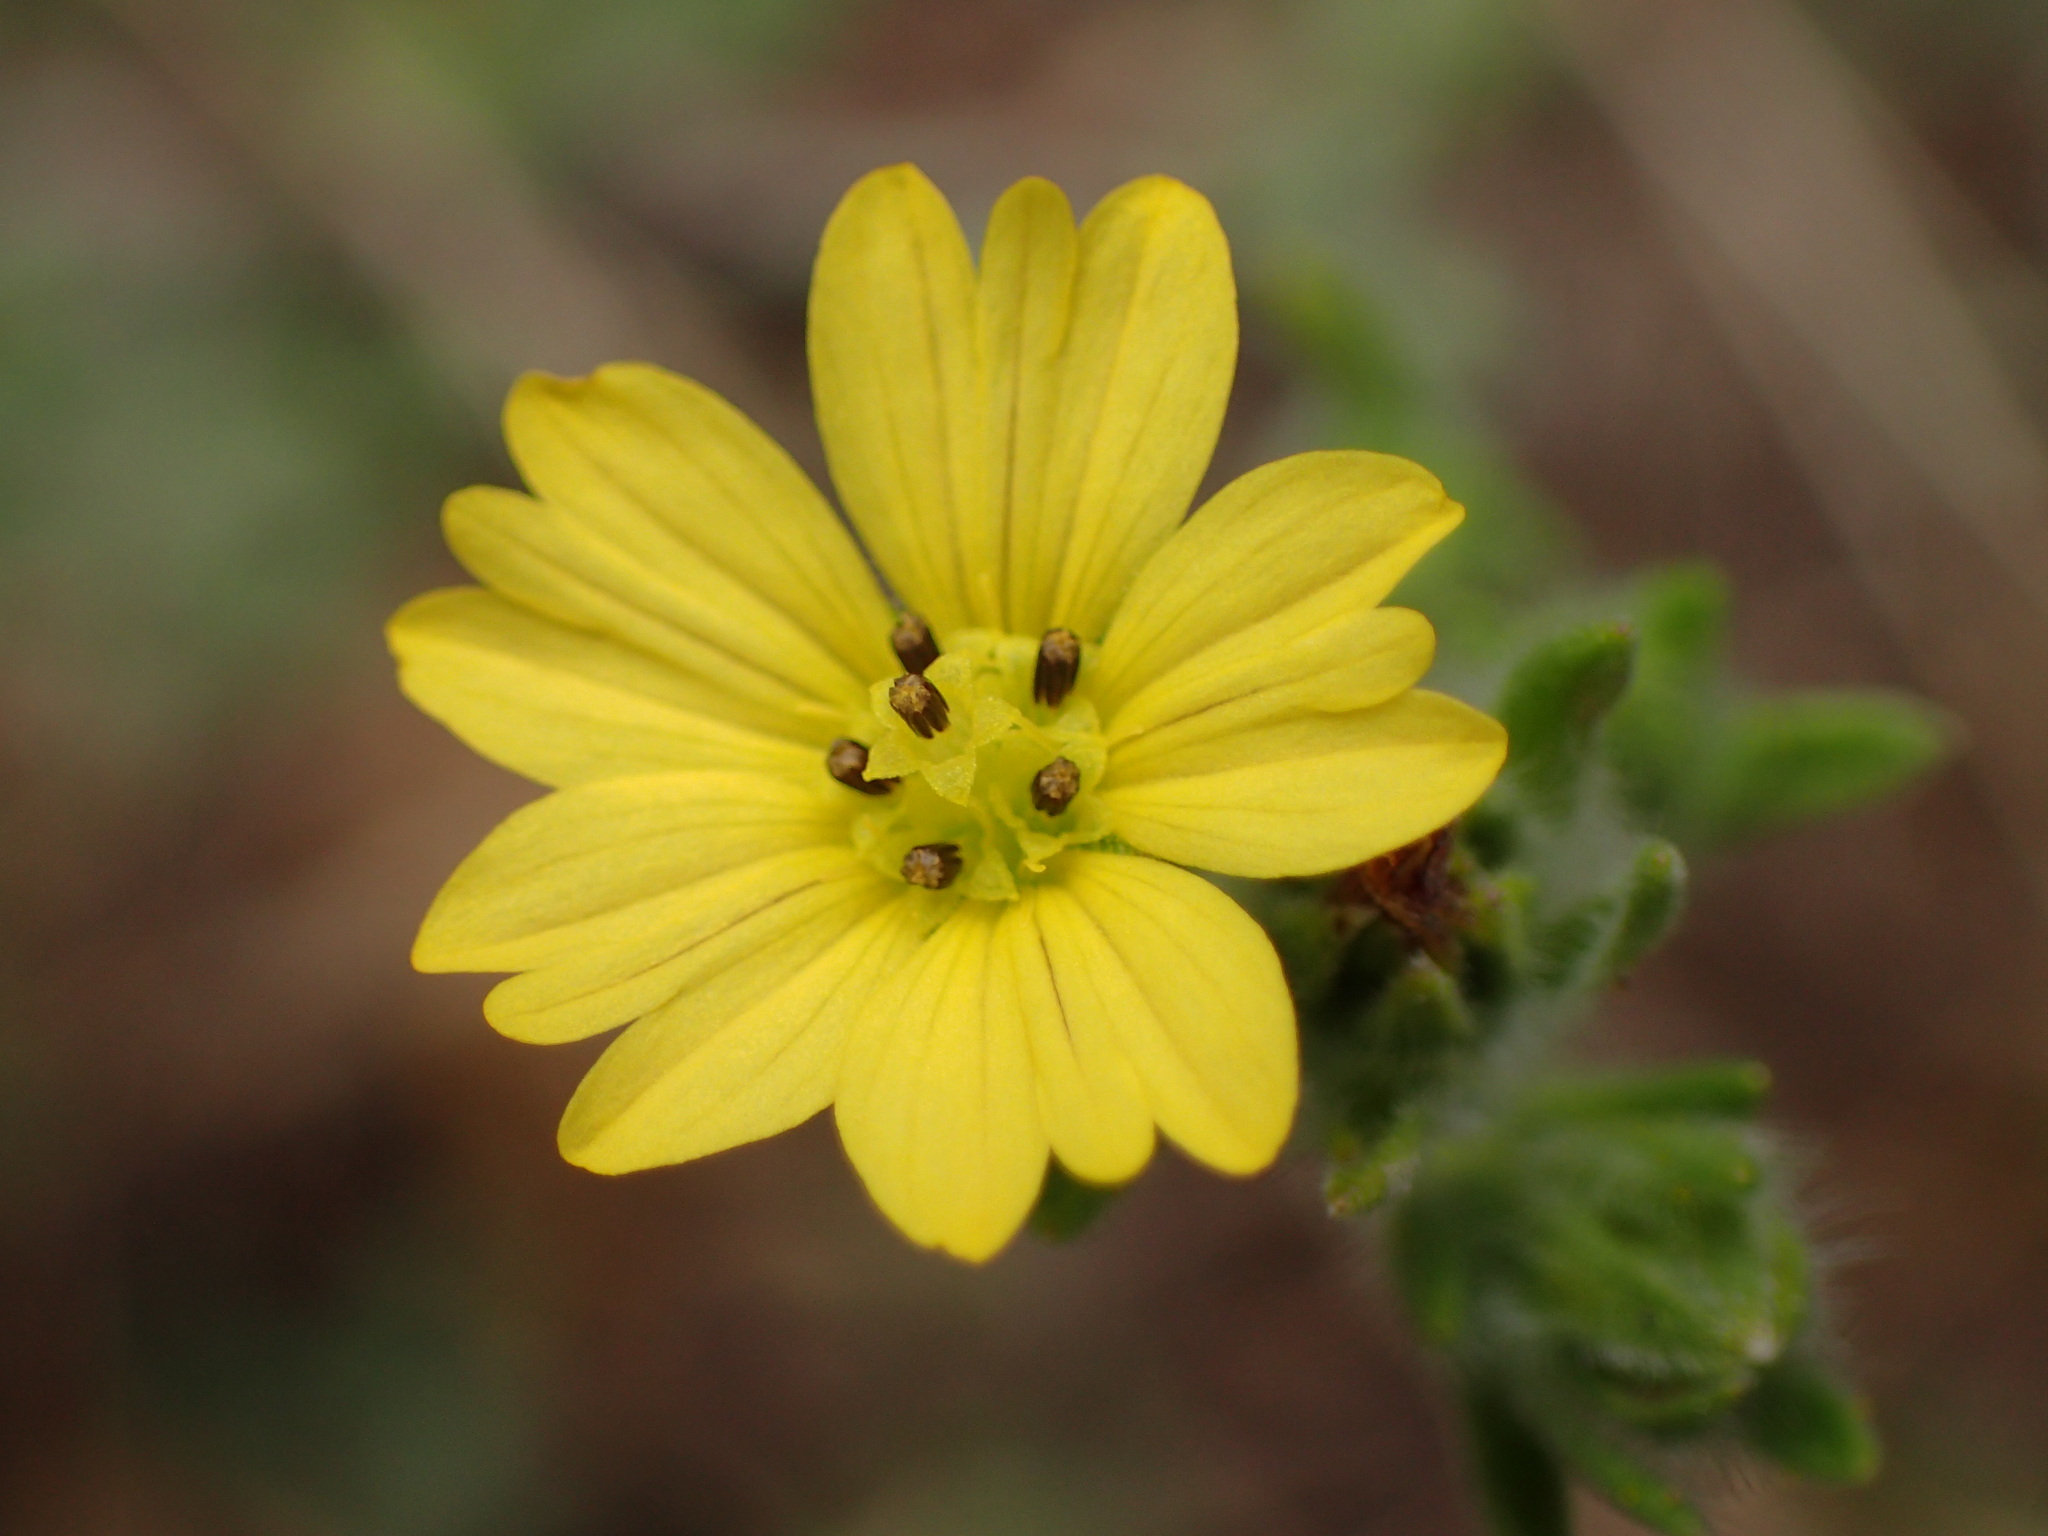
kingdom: Plantae
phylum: Tracheophyta
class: Magnoliopsida
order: Asterales
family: Asteraceae
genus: Lagophylla
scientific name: Lagophylla ramosissima
